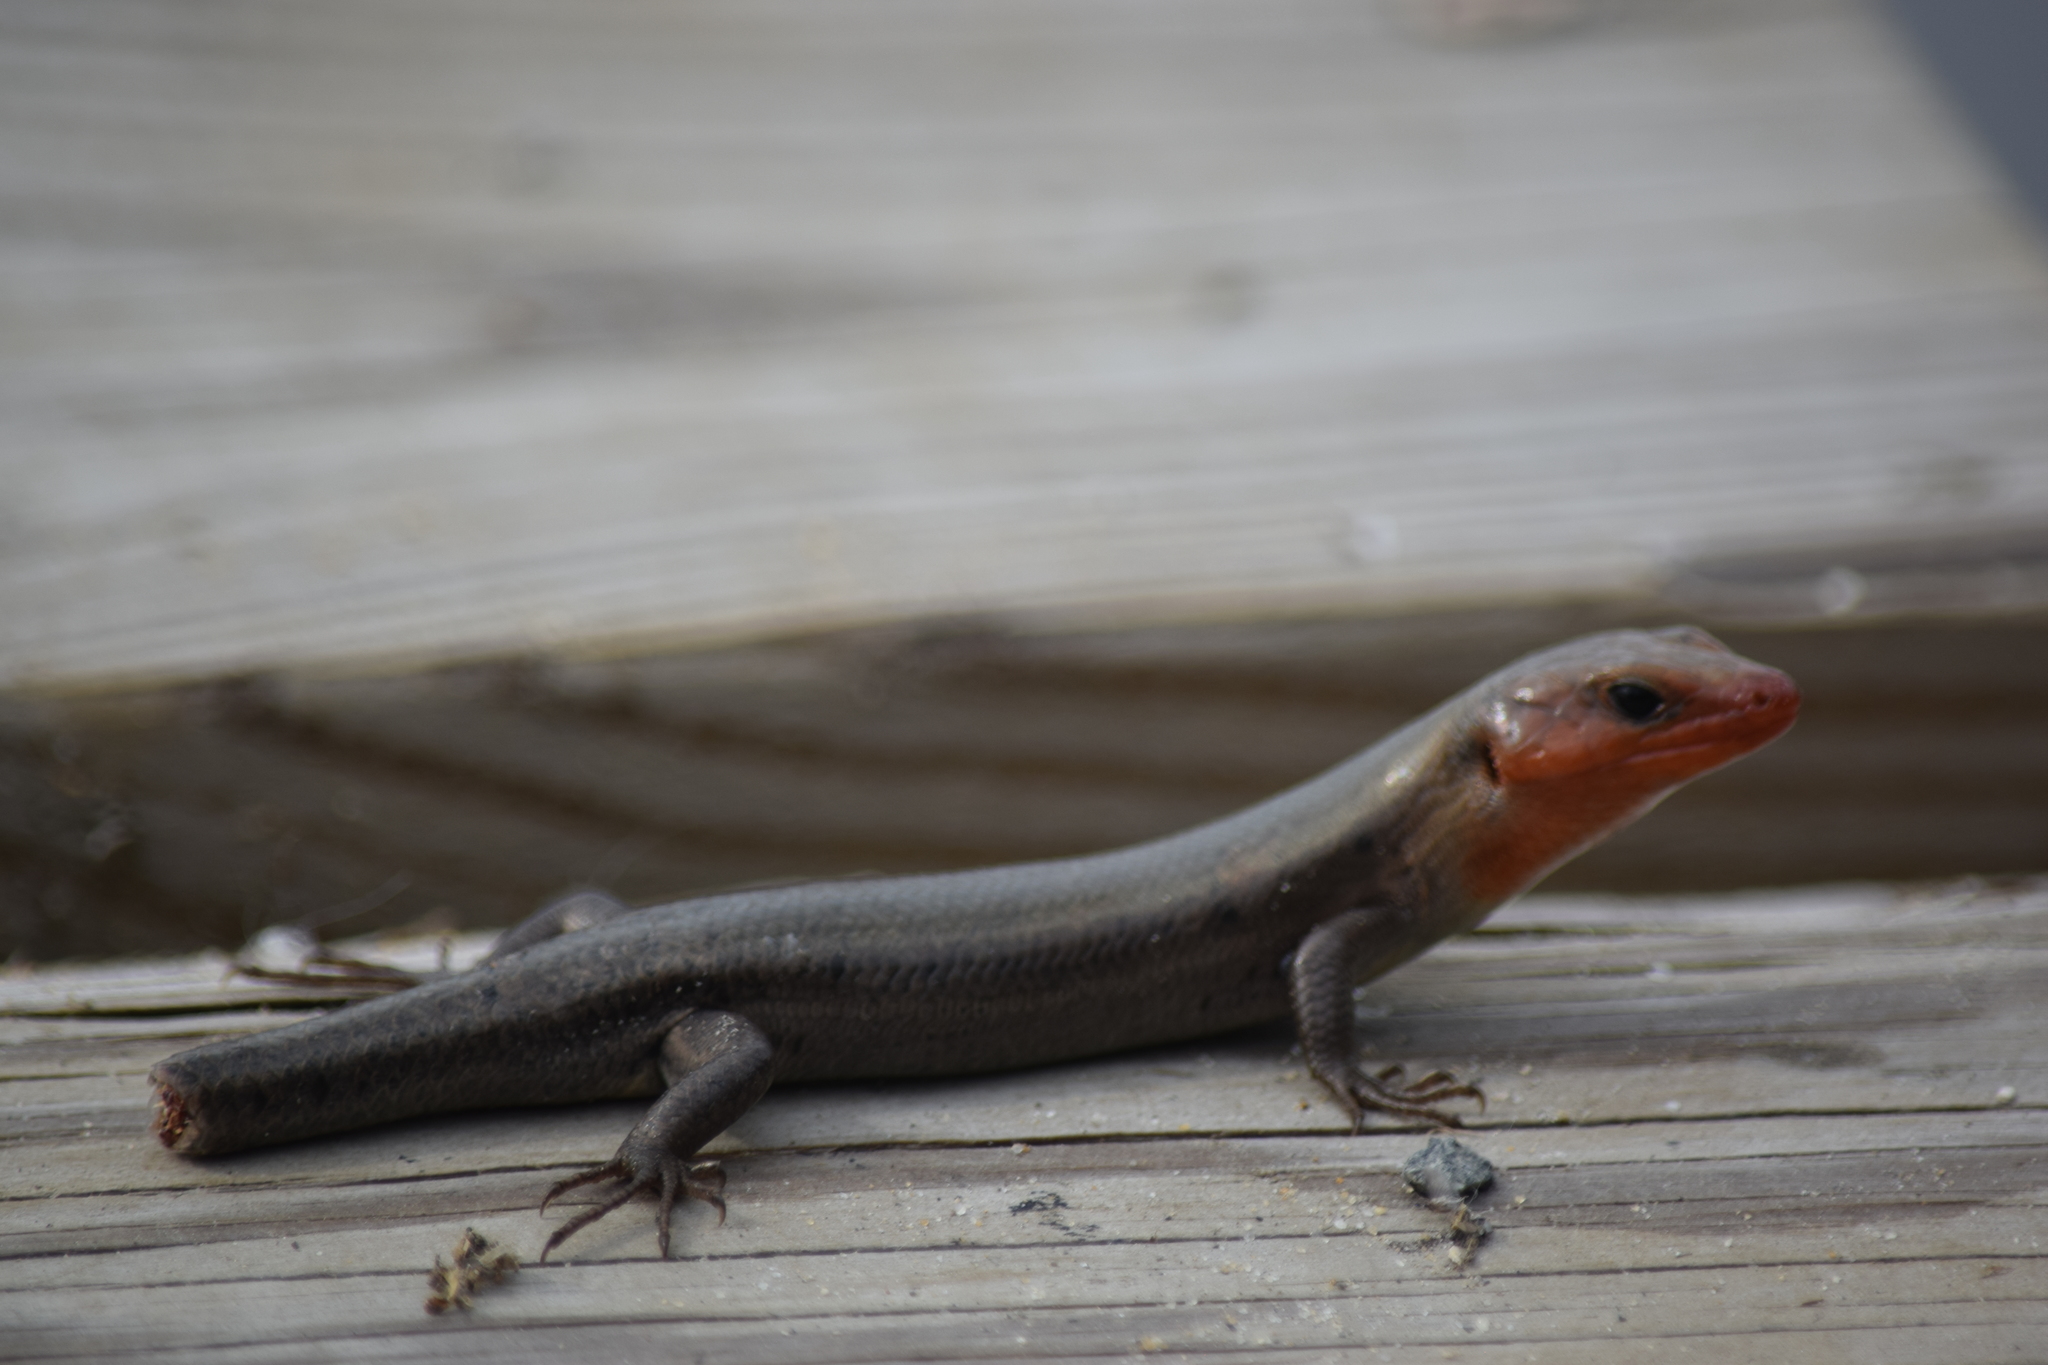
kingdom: Animalia
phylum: Chordata
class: Squamata
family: Scincidae
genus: Plestiodon
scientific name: Plestiodon fasciatus
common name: Five-lined skink
